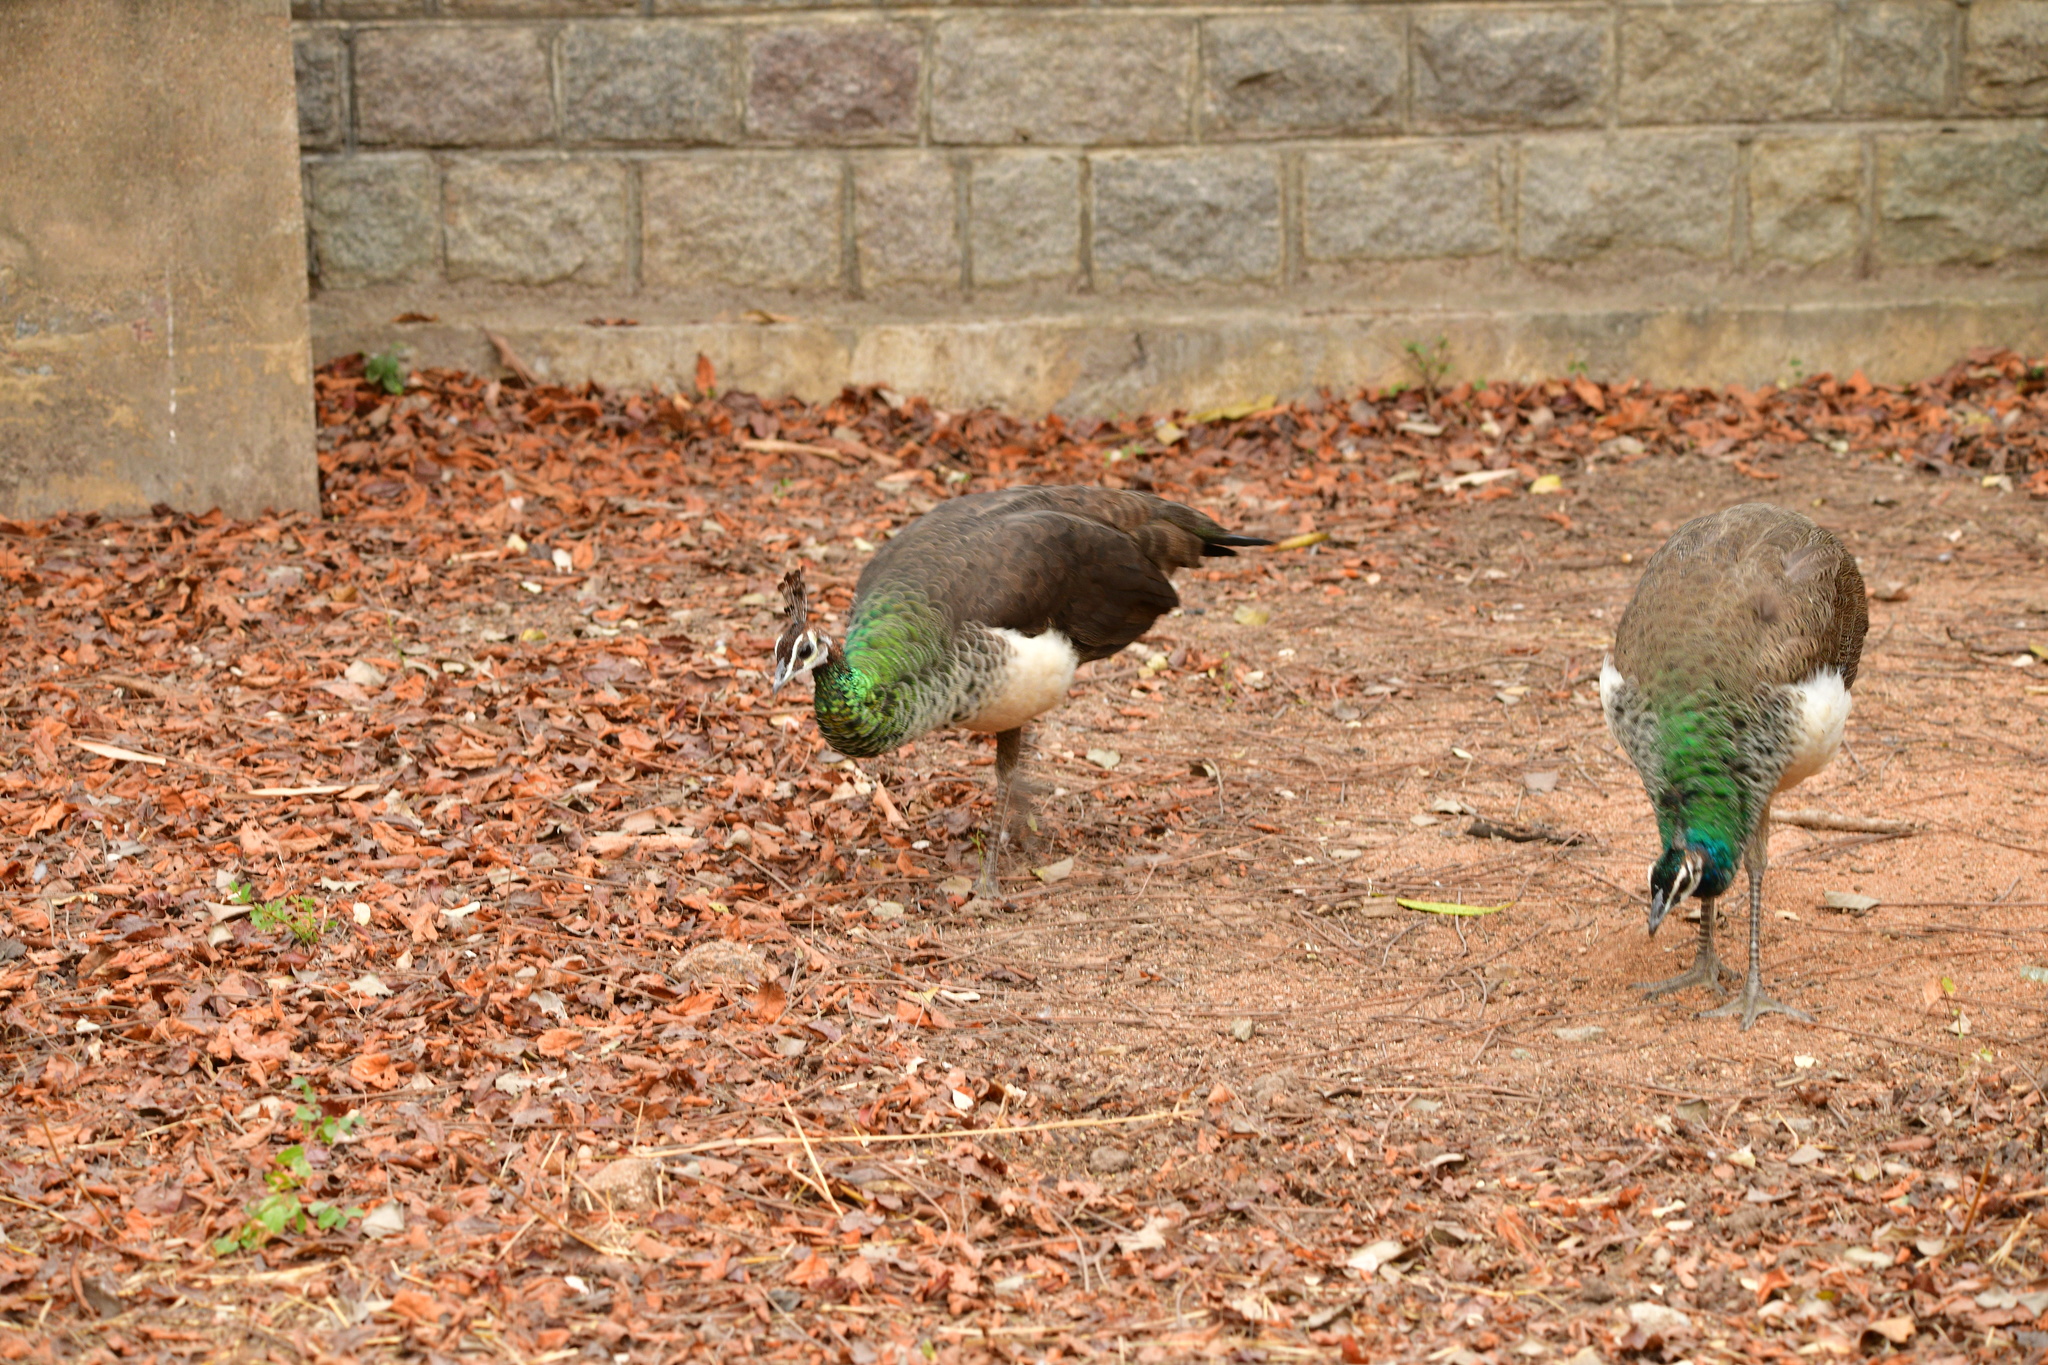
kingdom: Animalia
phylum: Chordata
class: Aves
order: Galliformes
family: Phasianidae
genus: Pavo
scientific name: Pavo cristatus
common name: Indian peafowl
